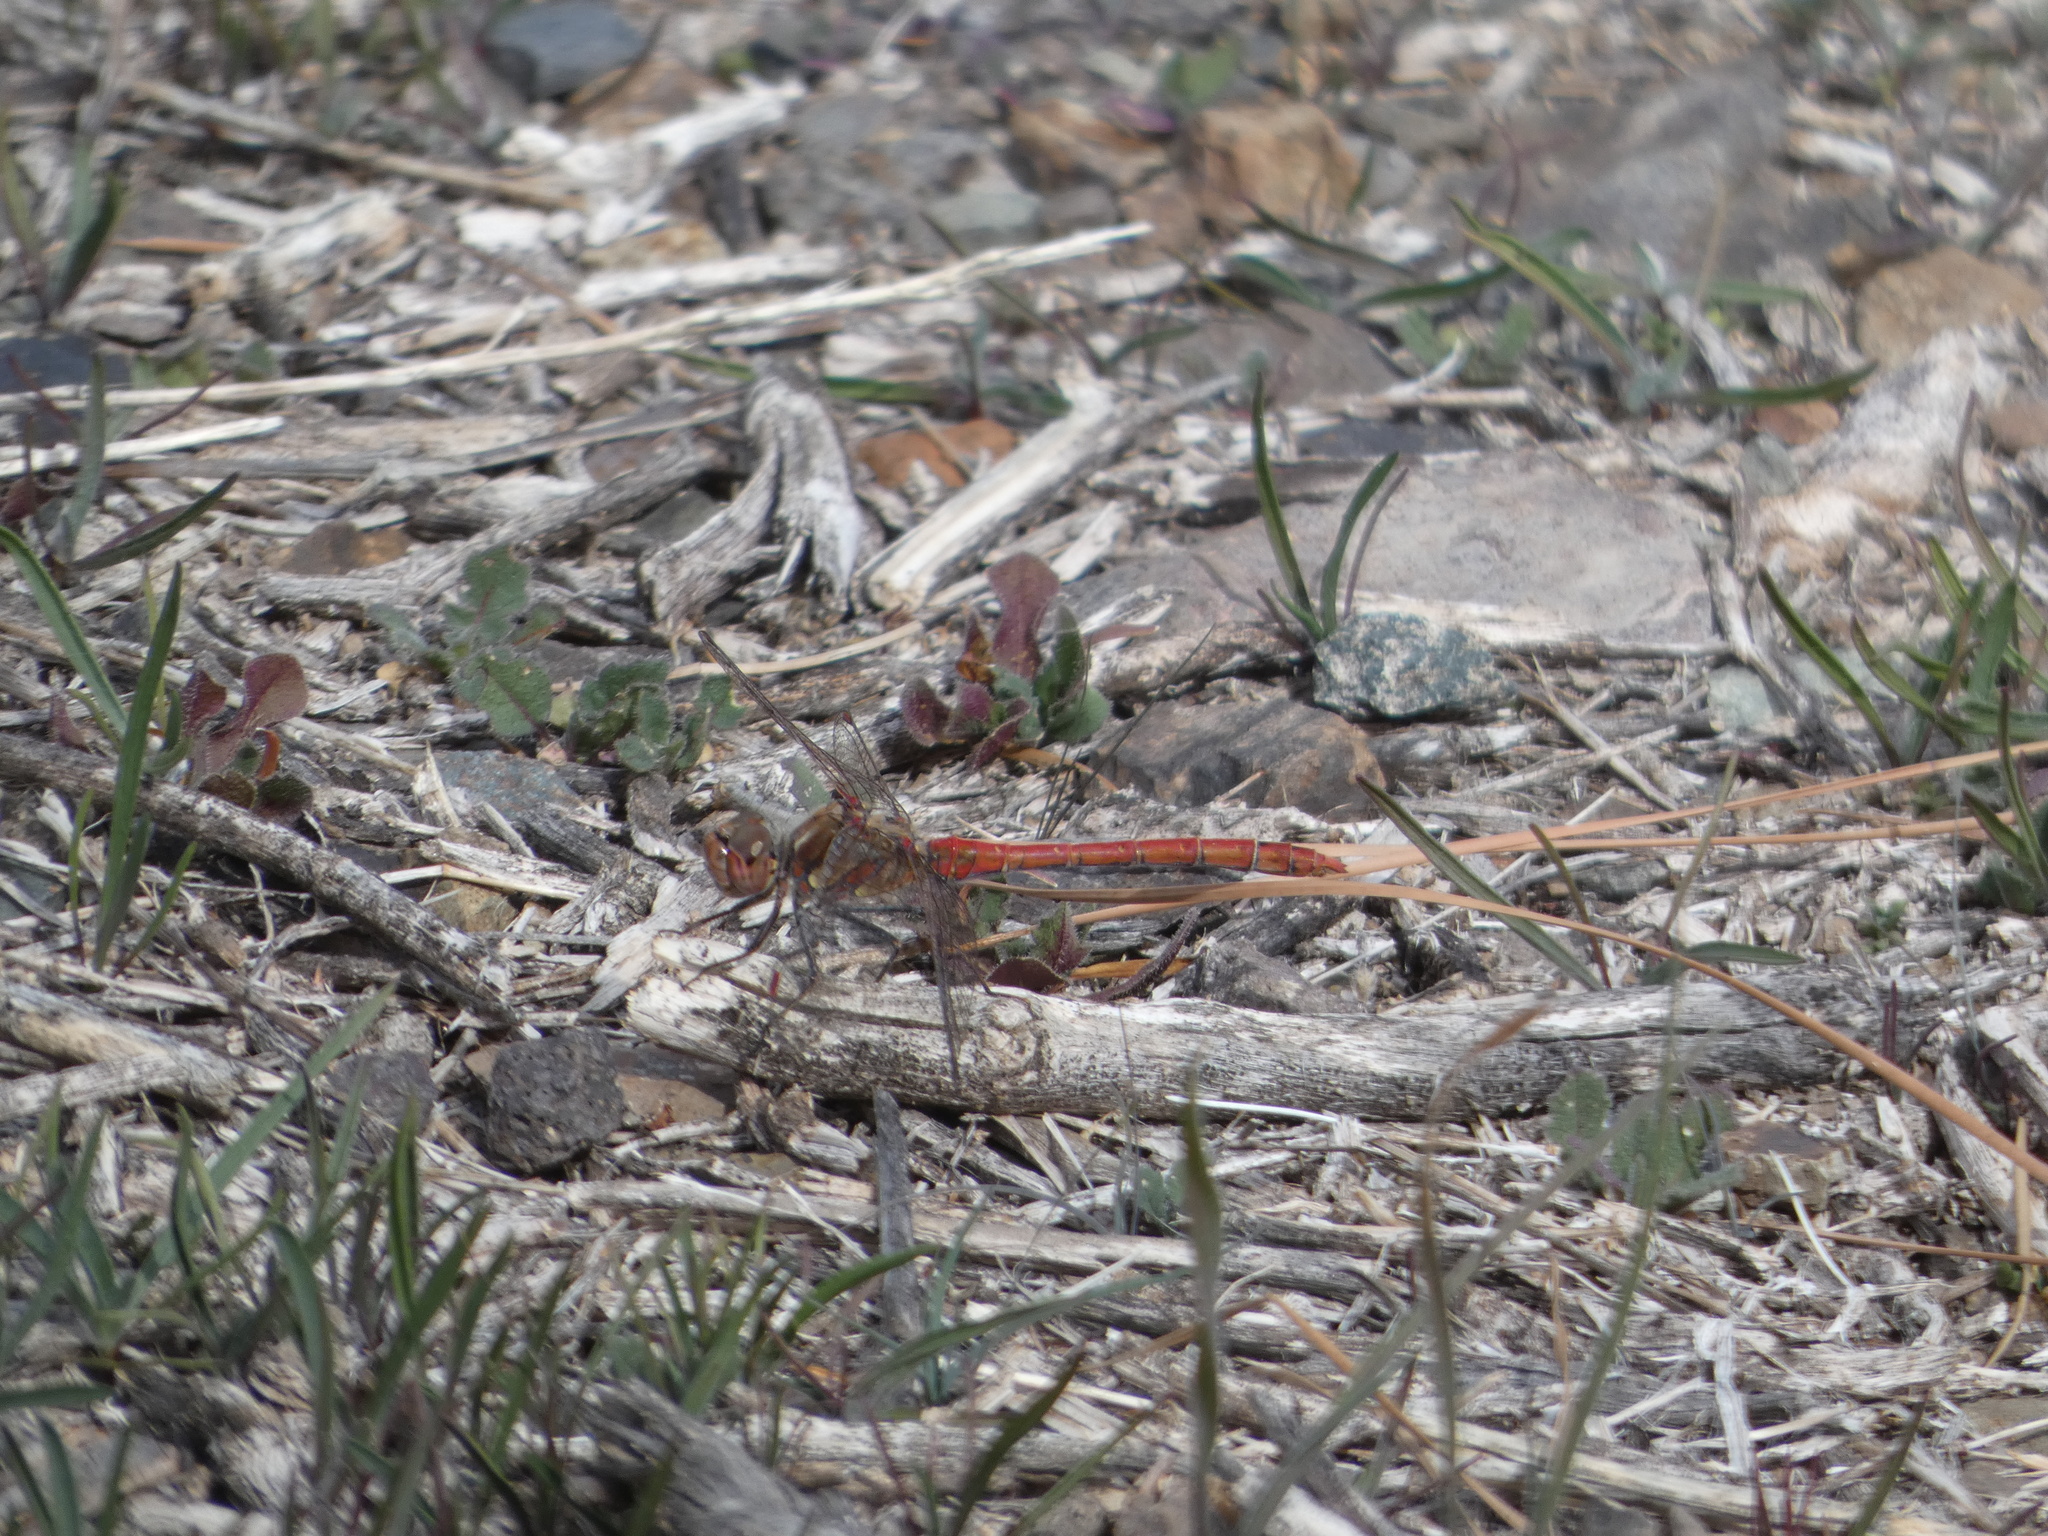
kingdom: Animalia
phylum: Arthropoda
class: Insecta
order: Odonata
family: Libellulidae
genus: Sympetrum
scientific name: Sympetrum nigrifemur
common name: Island darter
